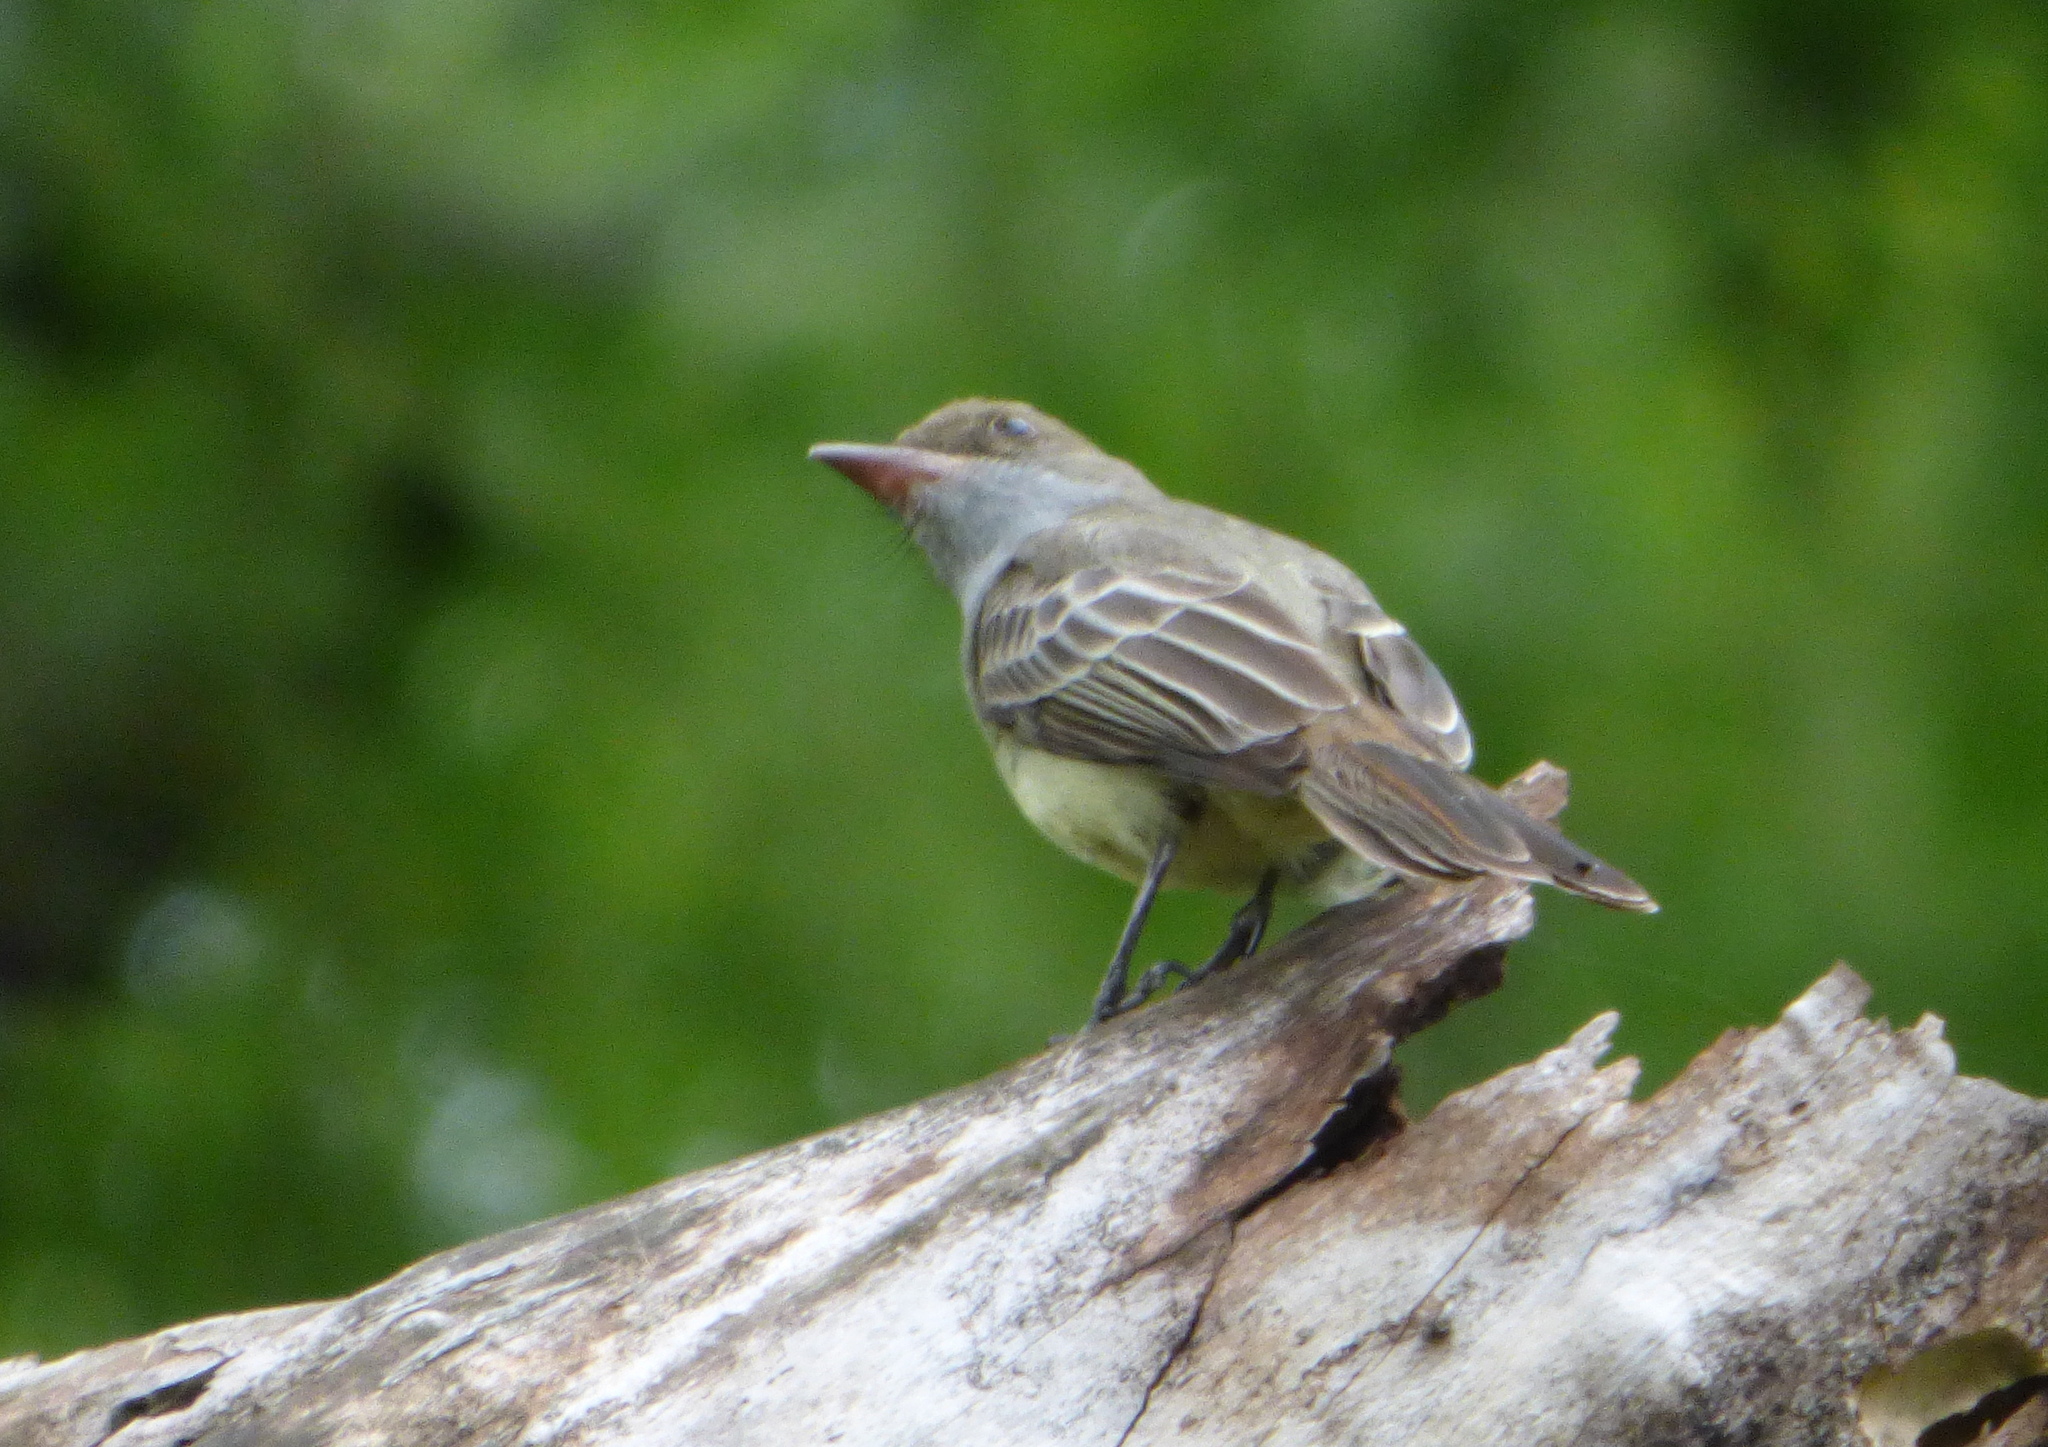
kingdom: Animalia
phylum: Chordata
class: Aves
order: Passeriformes
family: Tyrannidae
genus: Myiarchus
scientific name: Myiarchus swainsoni
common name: Swainson's flycatcher
